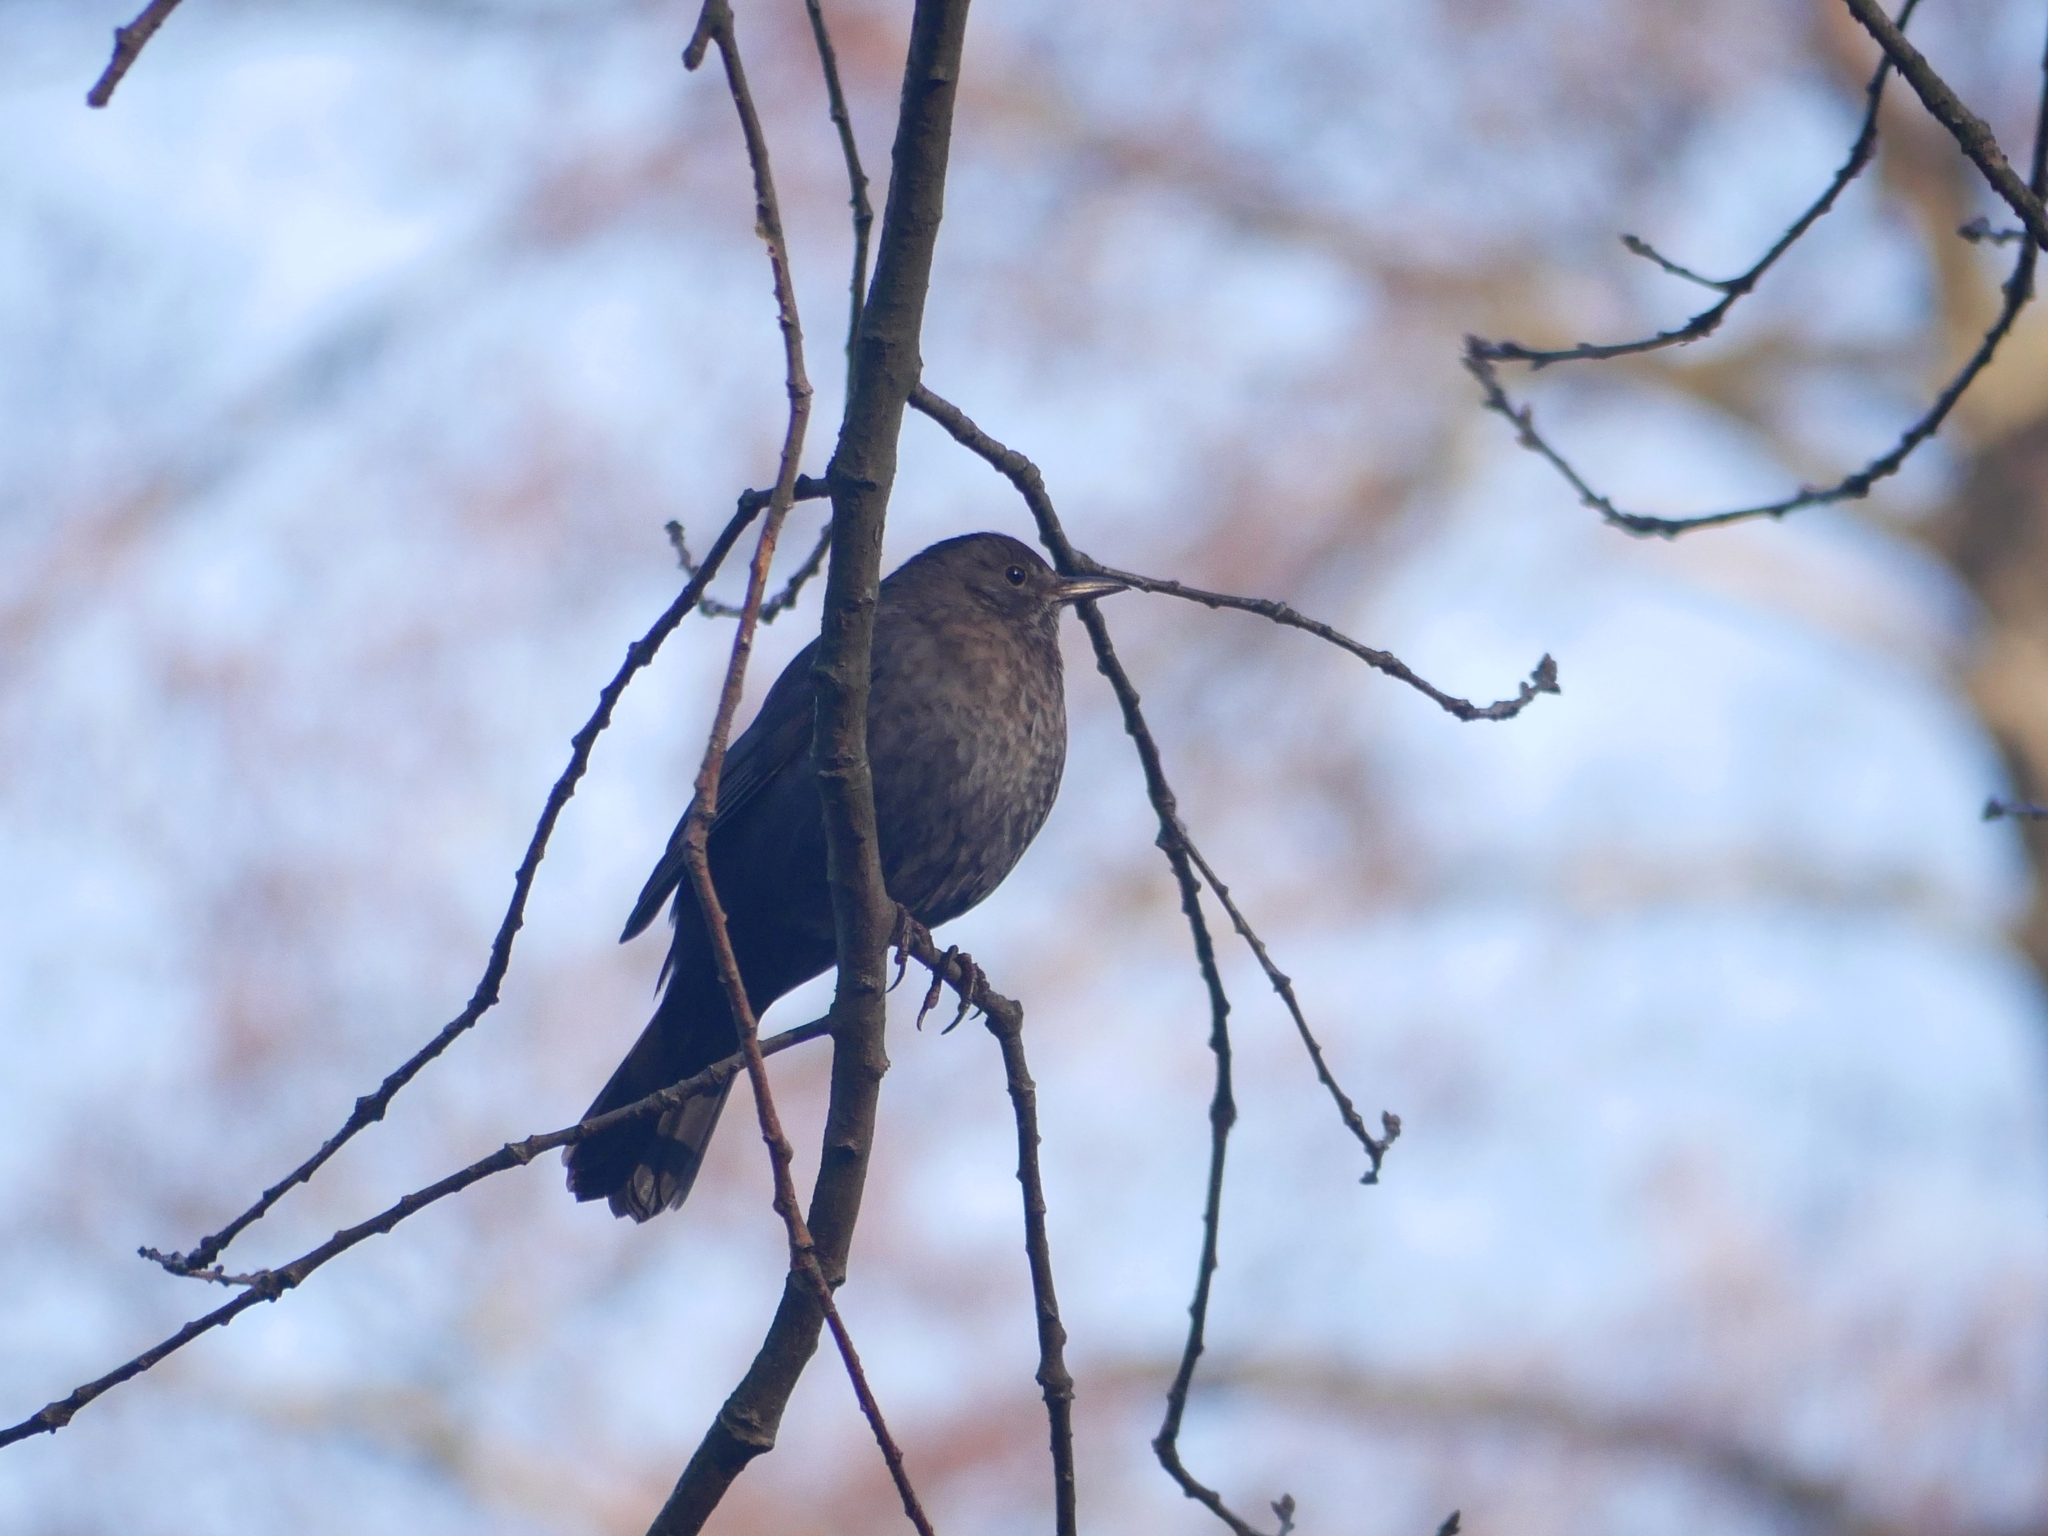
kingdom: Animalia
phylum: Chordata
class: Aves
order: Passeriformes
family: Turdidae
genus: Turdus
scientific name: Turdus merula
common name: Common blackbird
